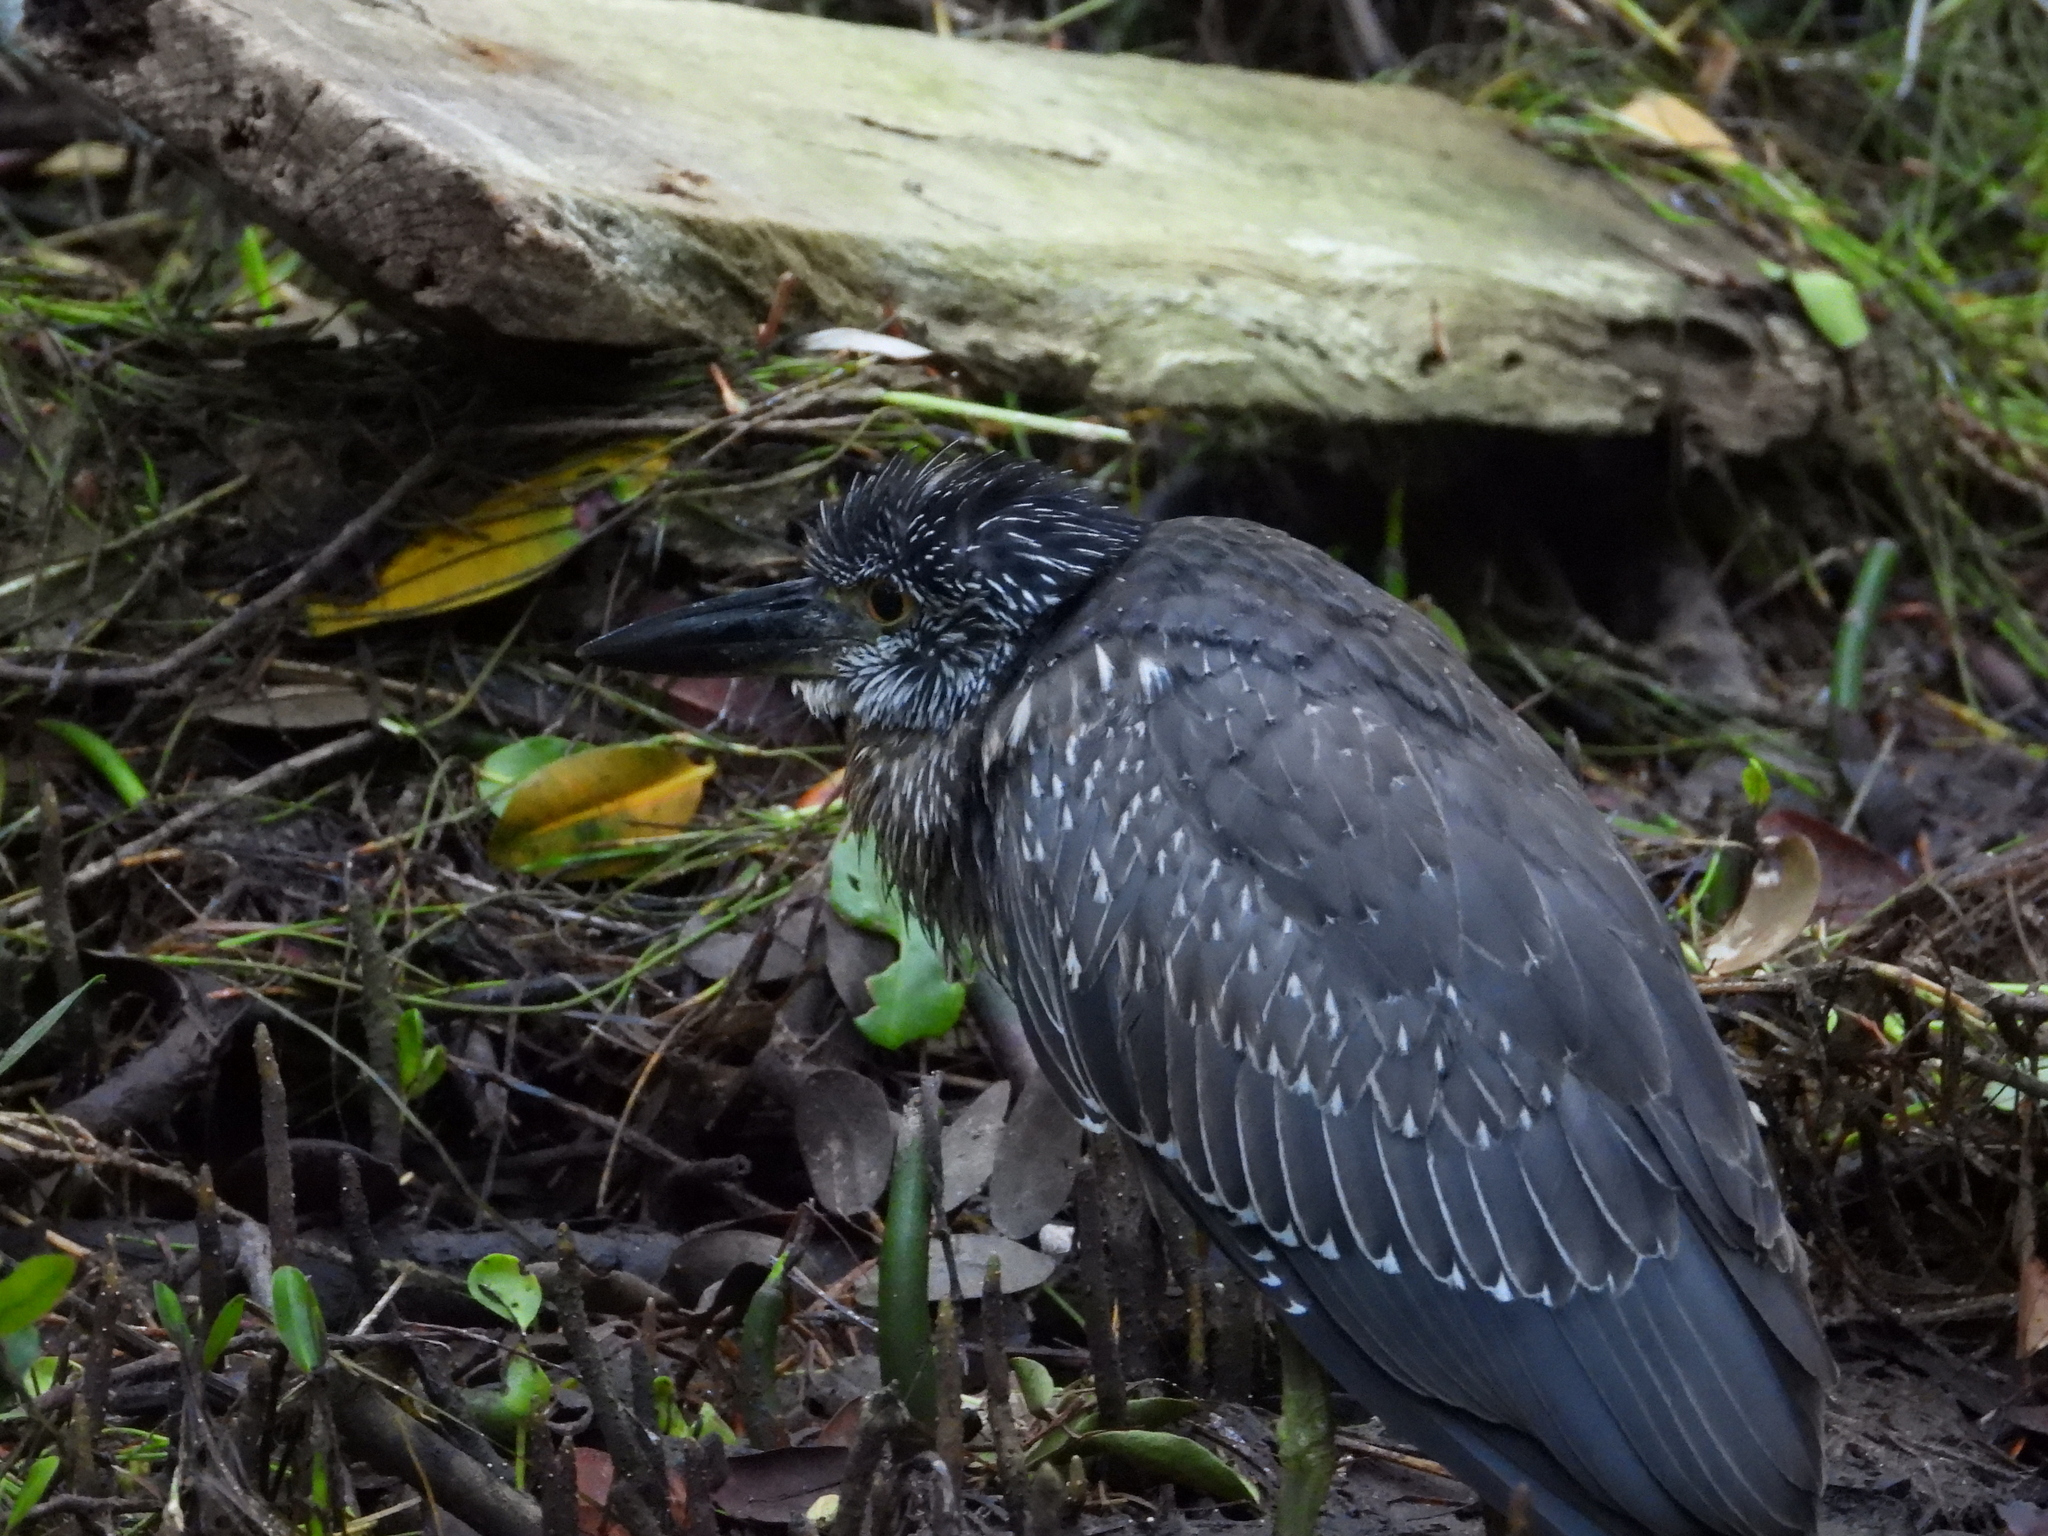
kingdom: Animalia
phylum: Chordata
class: Aves
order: Pelecaniformes
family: Ardeidae
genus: Nyctanassa
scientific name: Nyctanassa violacea
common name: Yellow-crowned night heron
